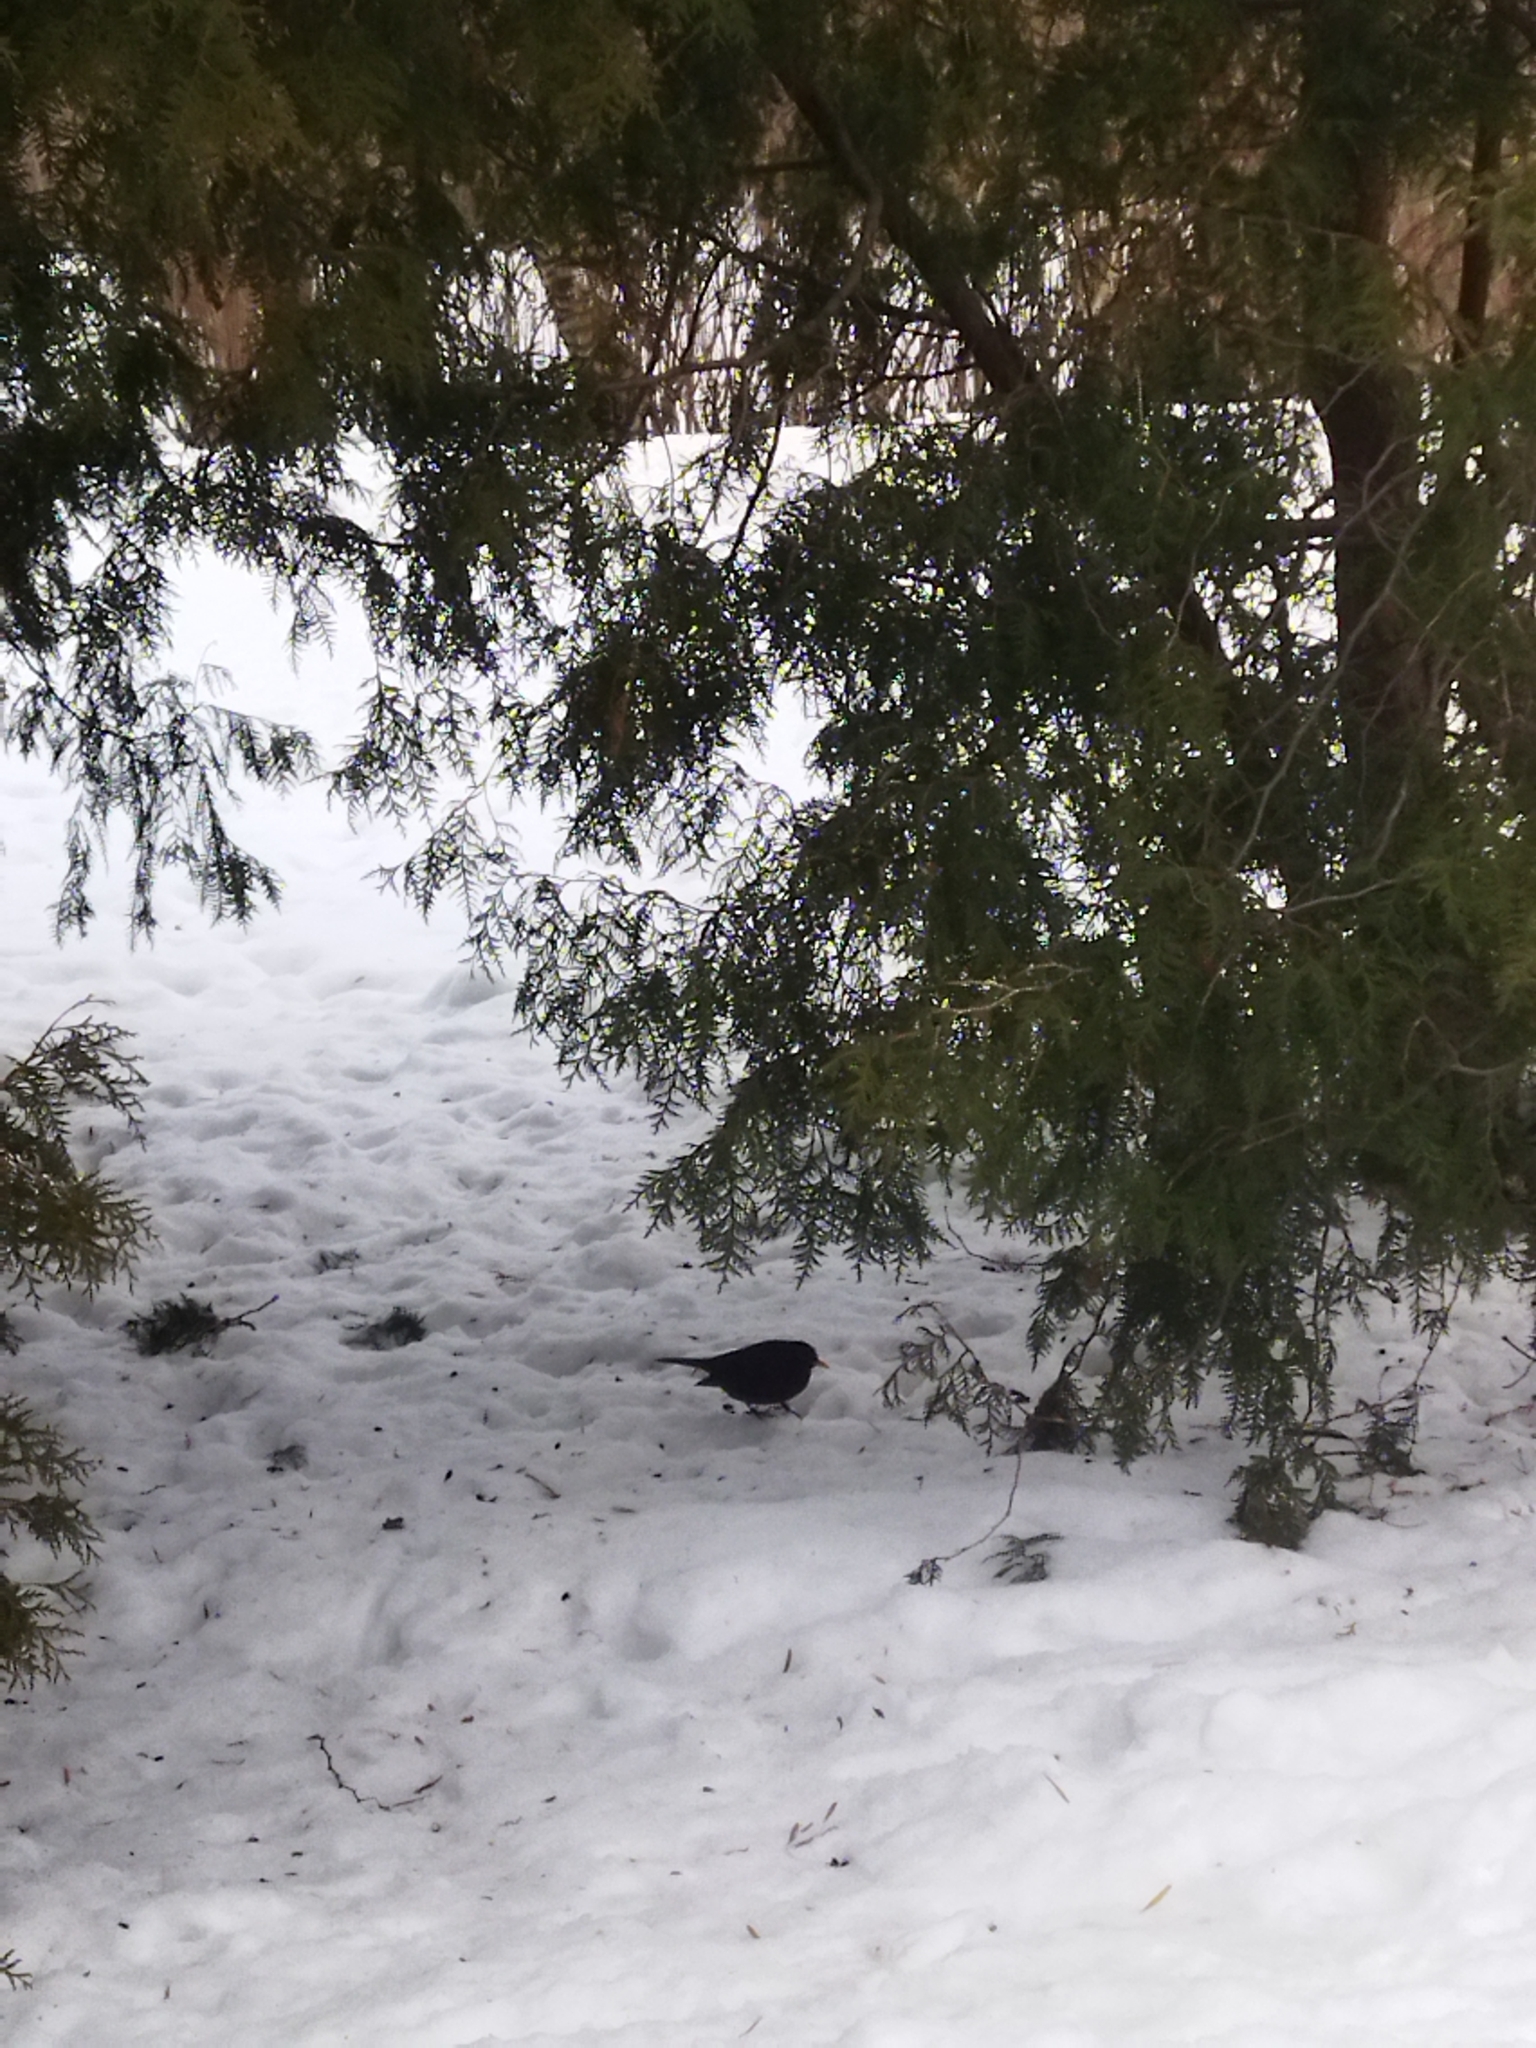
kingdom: Animalia
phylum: Chordata
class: Aves
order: Passeriformes
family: Turdidae
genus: Turdus
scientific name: Turdus merula
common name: Common blackbird
